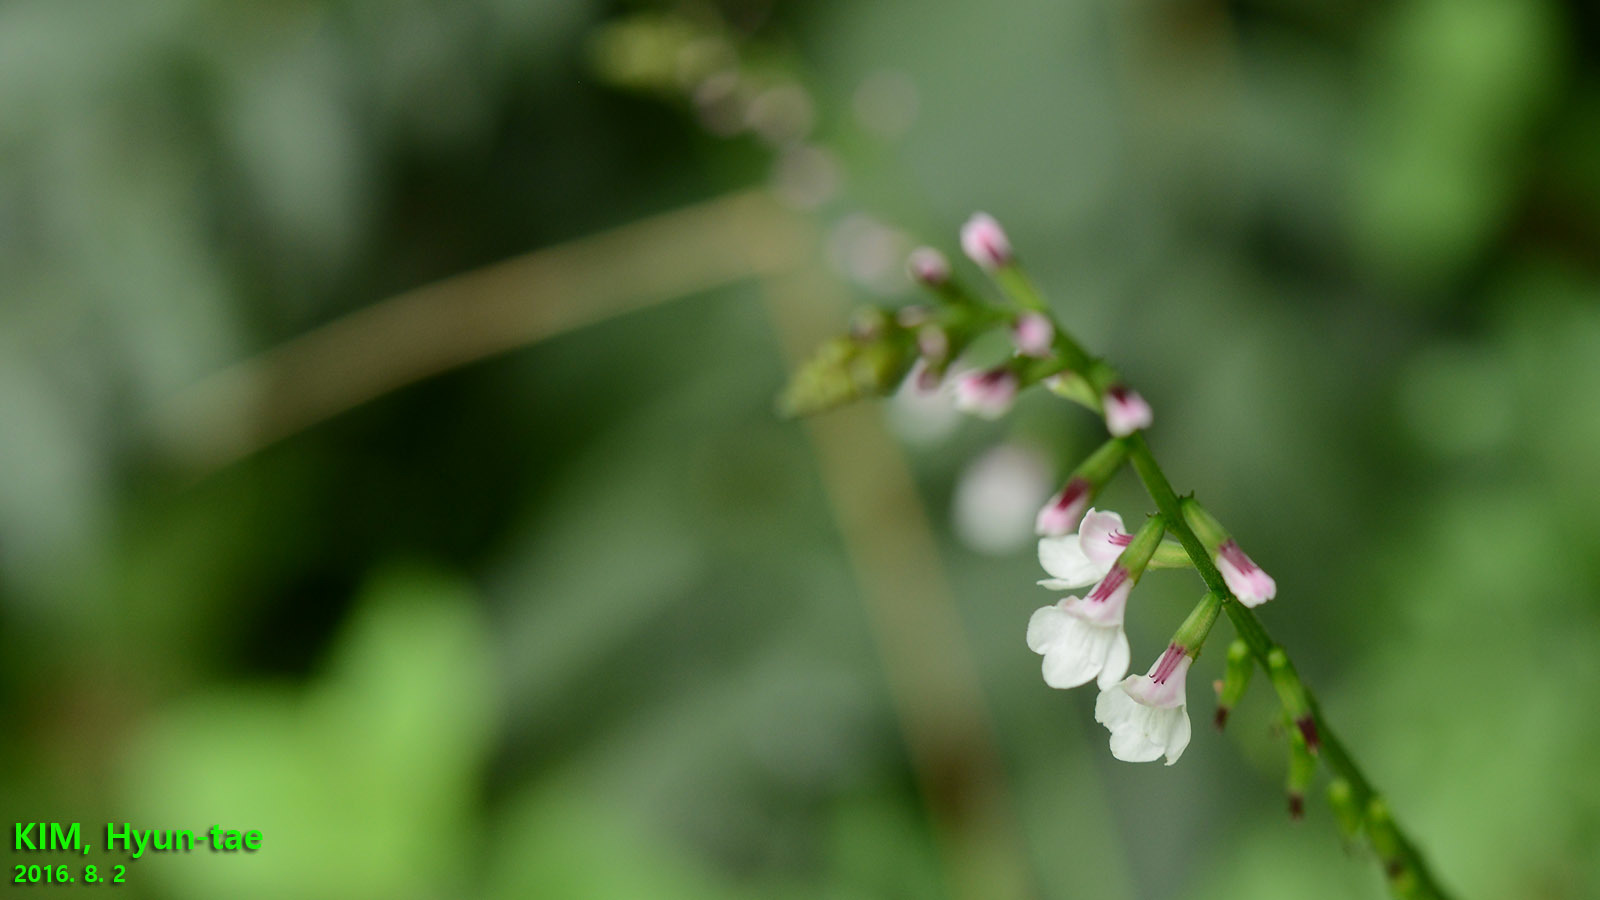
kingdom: Plantae
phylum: Tracheophyta
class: Magnoliopsida
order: Lamiales
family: Phrymaceae
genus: Phryma
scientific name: Phryma nana
